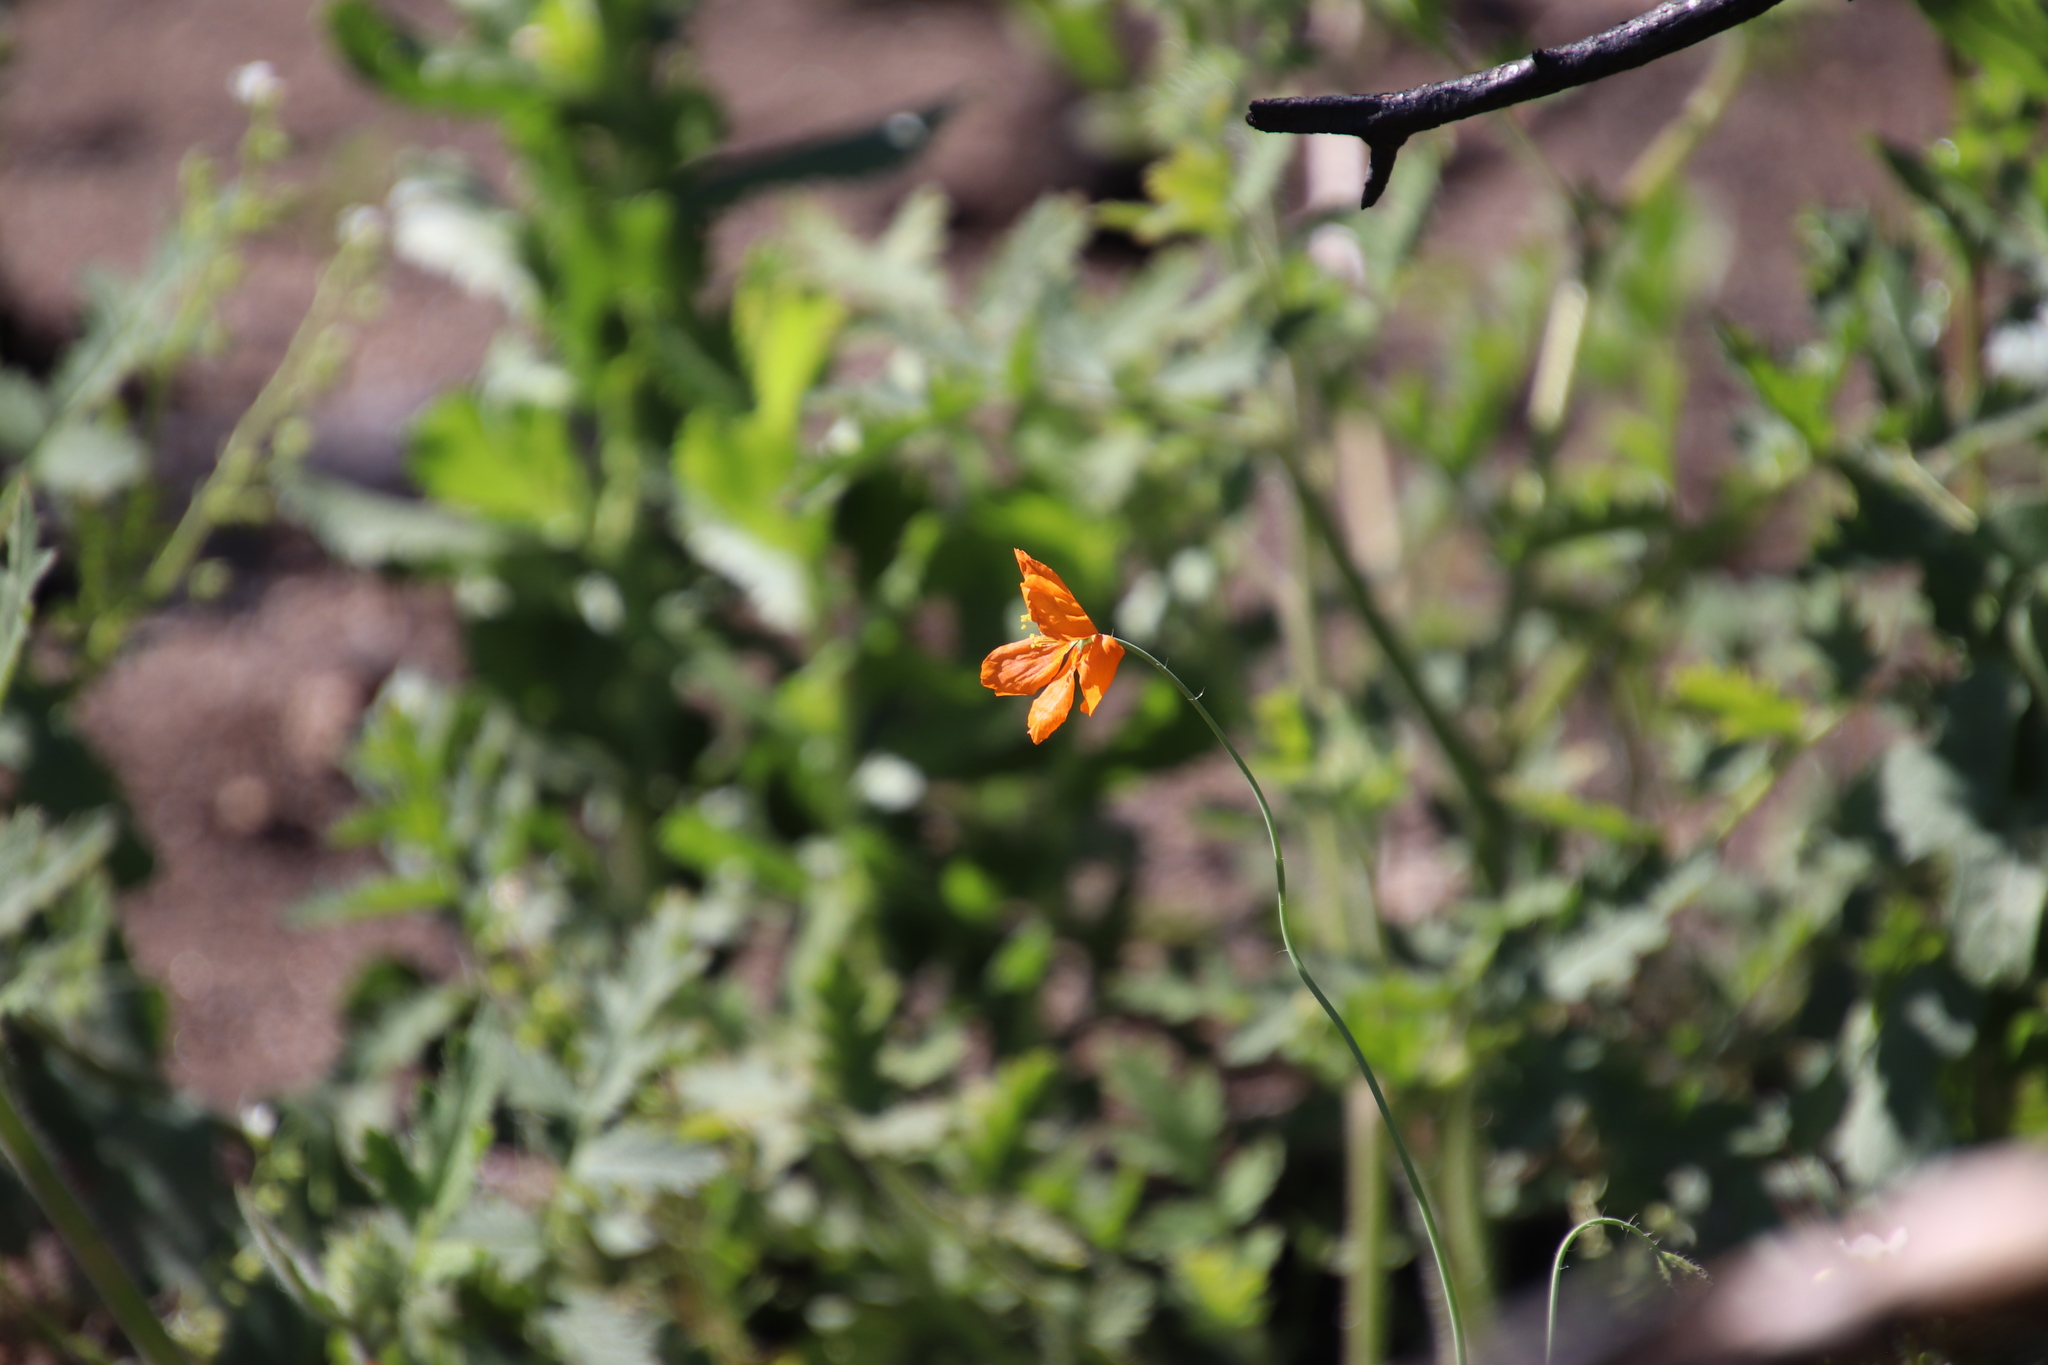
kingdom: Plantae
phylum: Tracheophyta
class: Magnoliopsida
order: Ranunculales
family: Papaveraceae
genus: Papaver
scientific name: Papaver californicum
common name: Fire poppy
